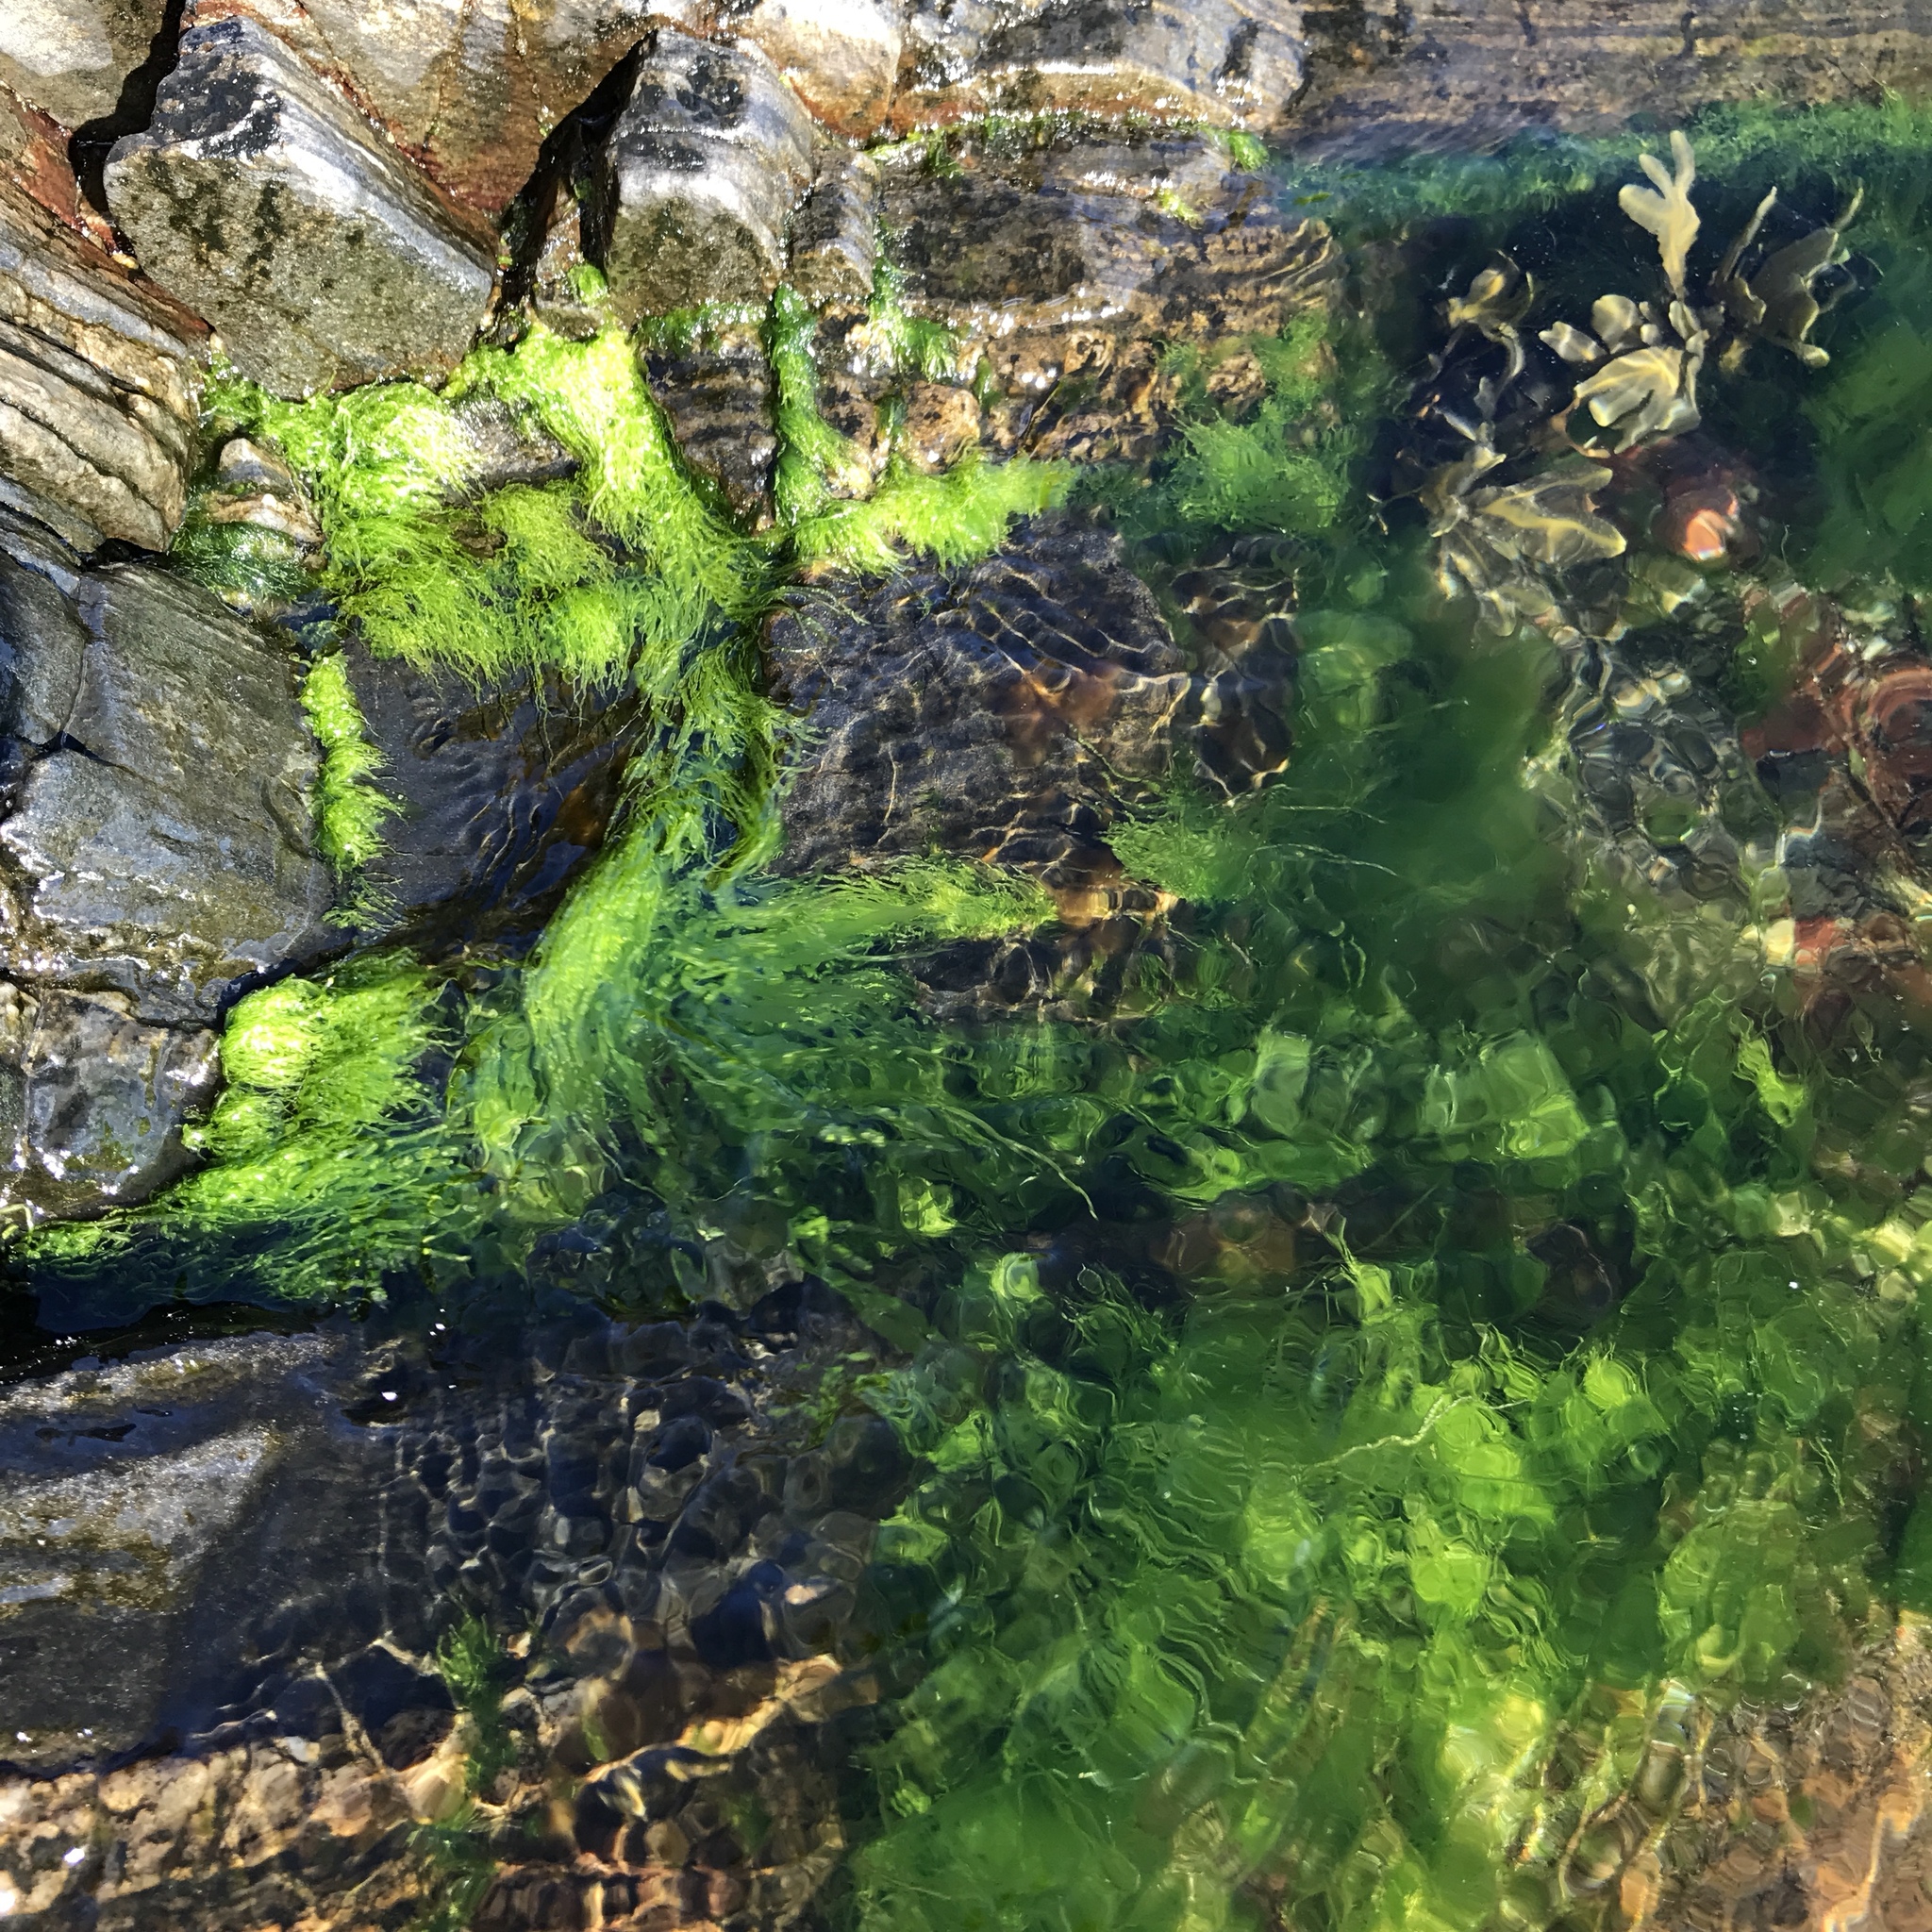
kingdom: Plantae
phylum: Chlorophyta
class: Ulvophyceae
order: Ulvales
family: Ulvaceae
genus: Ulva
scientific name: Ulva intestinalis
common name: Gut weed
